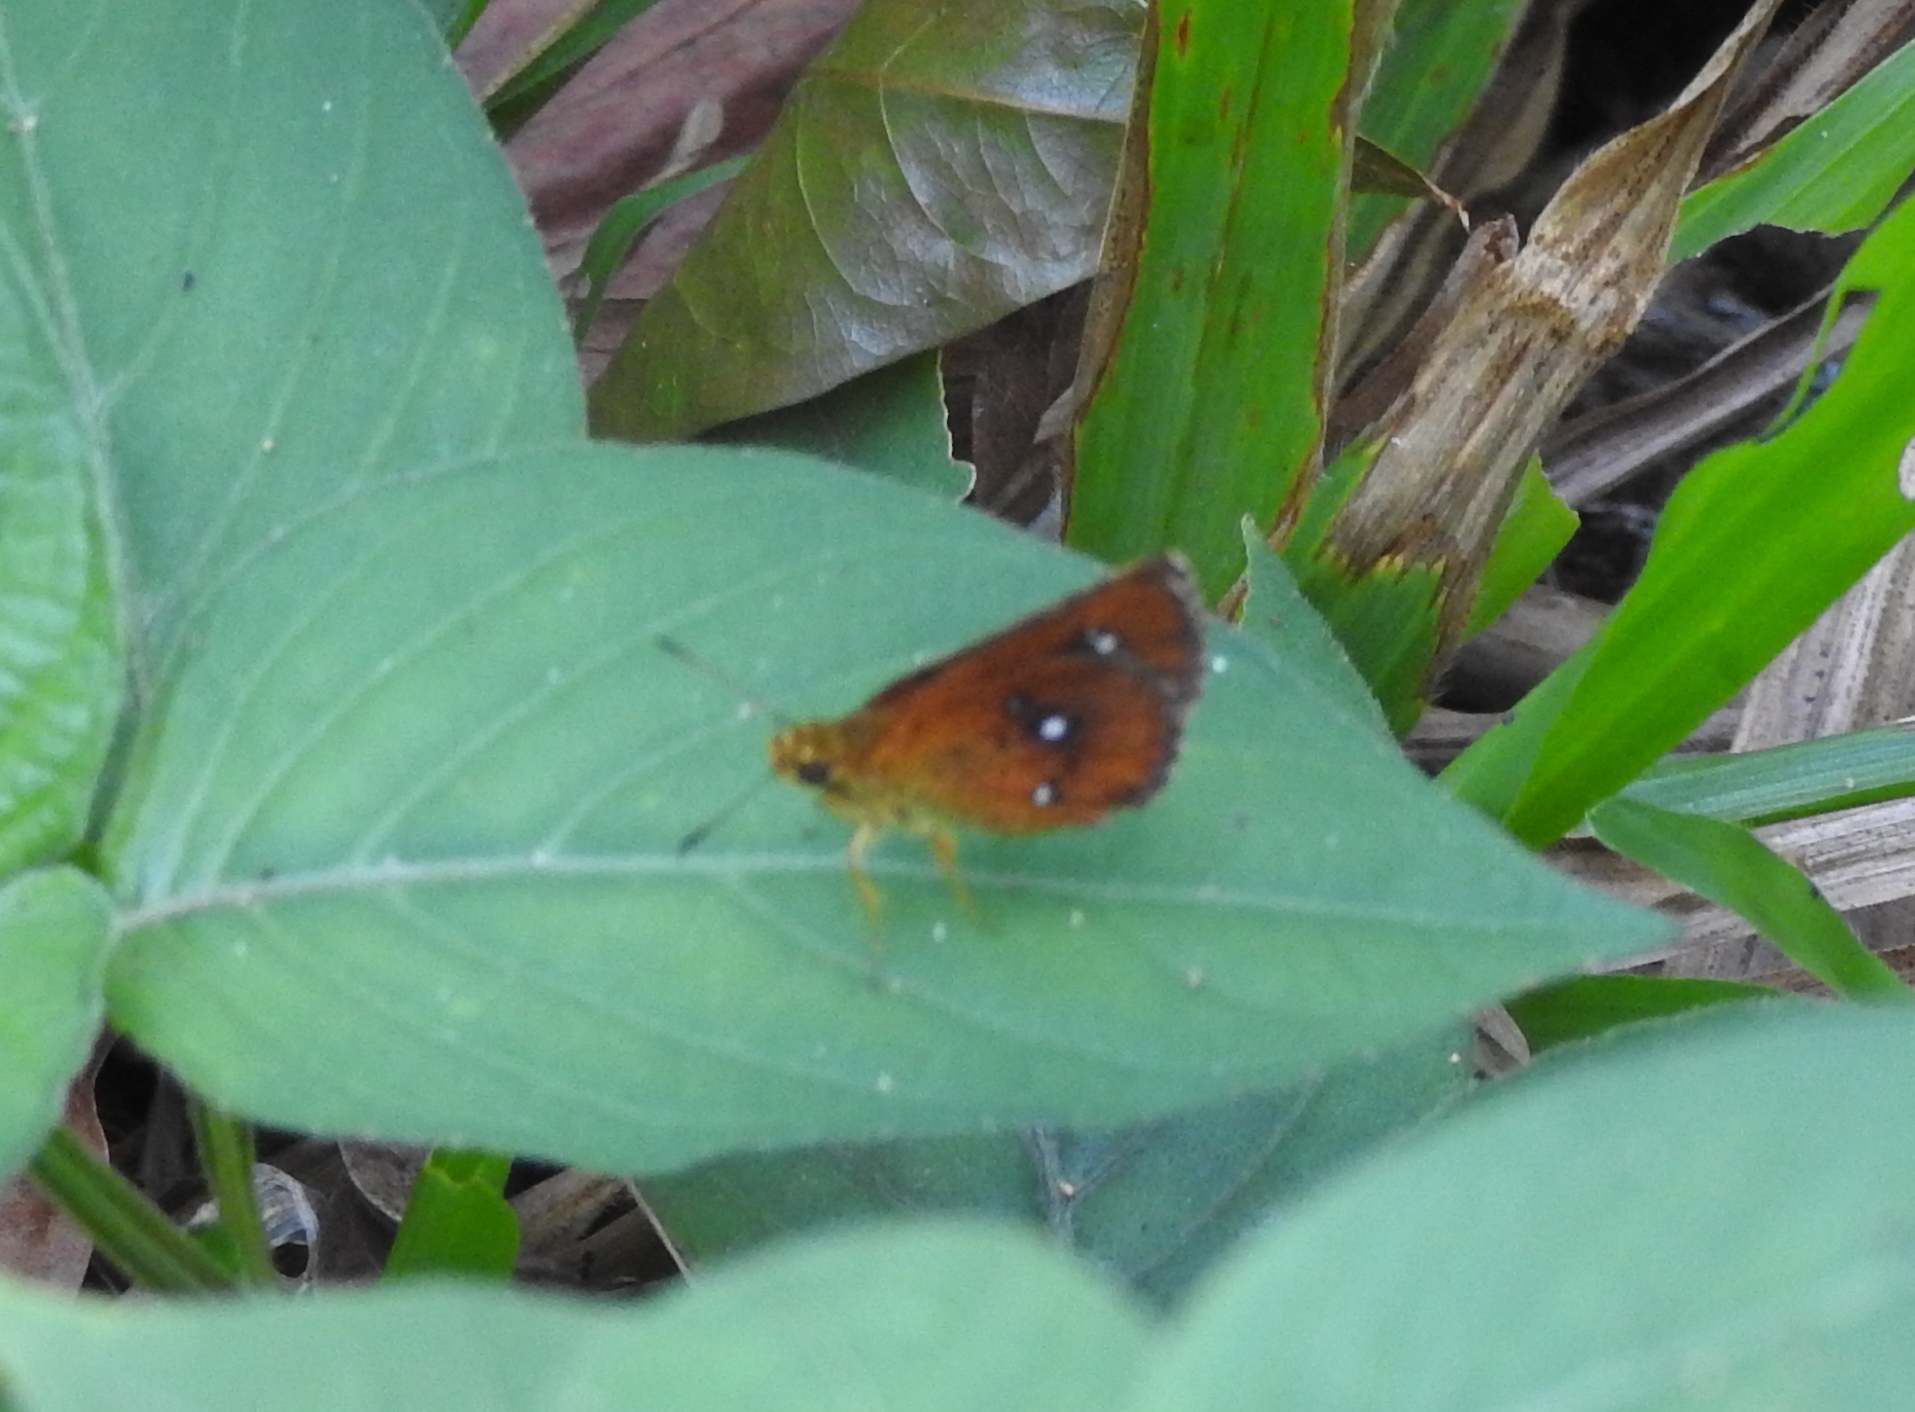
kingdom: Animalia
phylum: Arthropoda
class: Insecta
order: Lepidoptera
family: Hesperiidae
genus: Iambrix
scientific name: Iambrix salsala
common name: Chestnut bob
